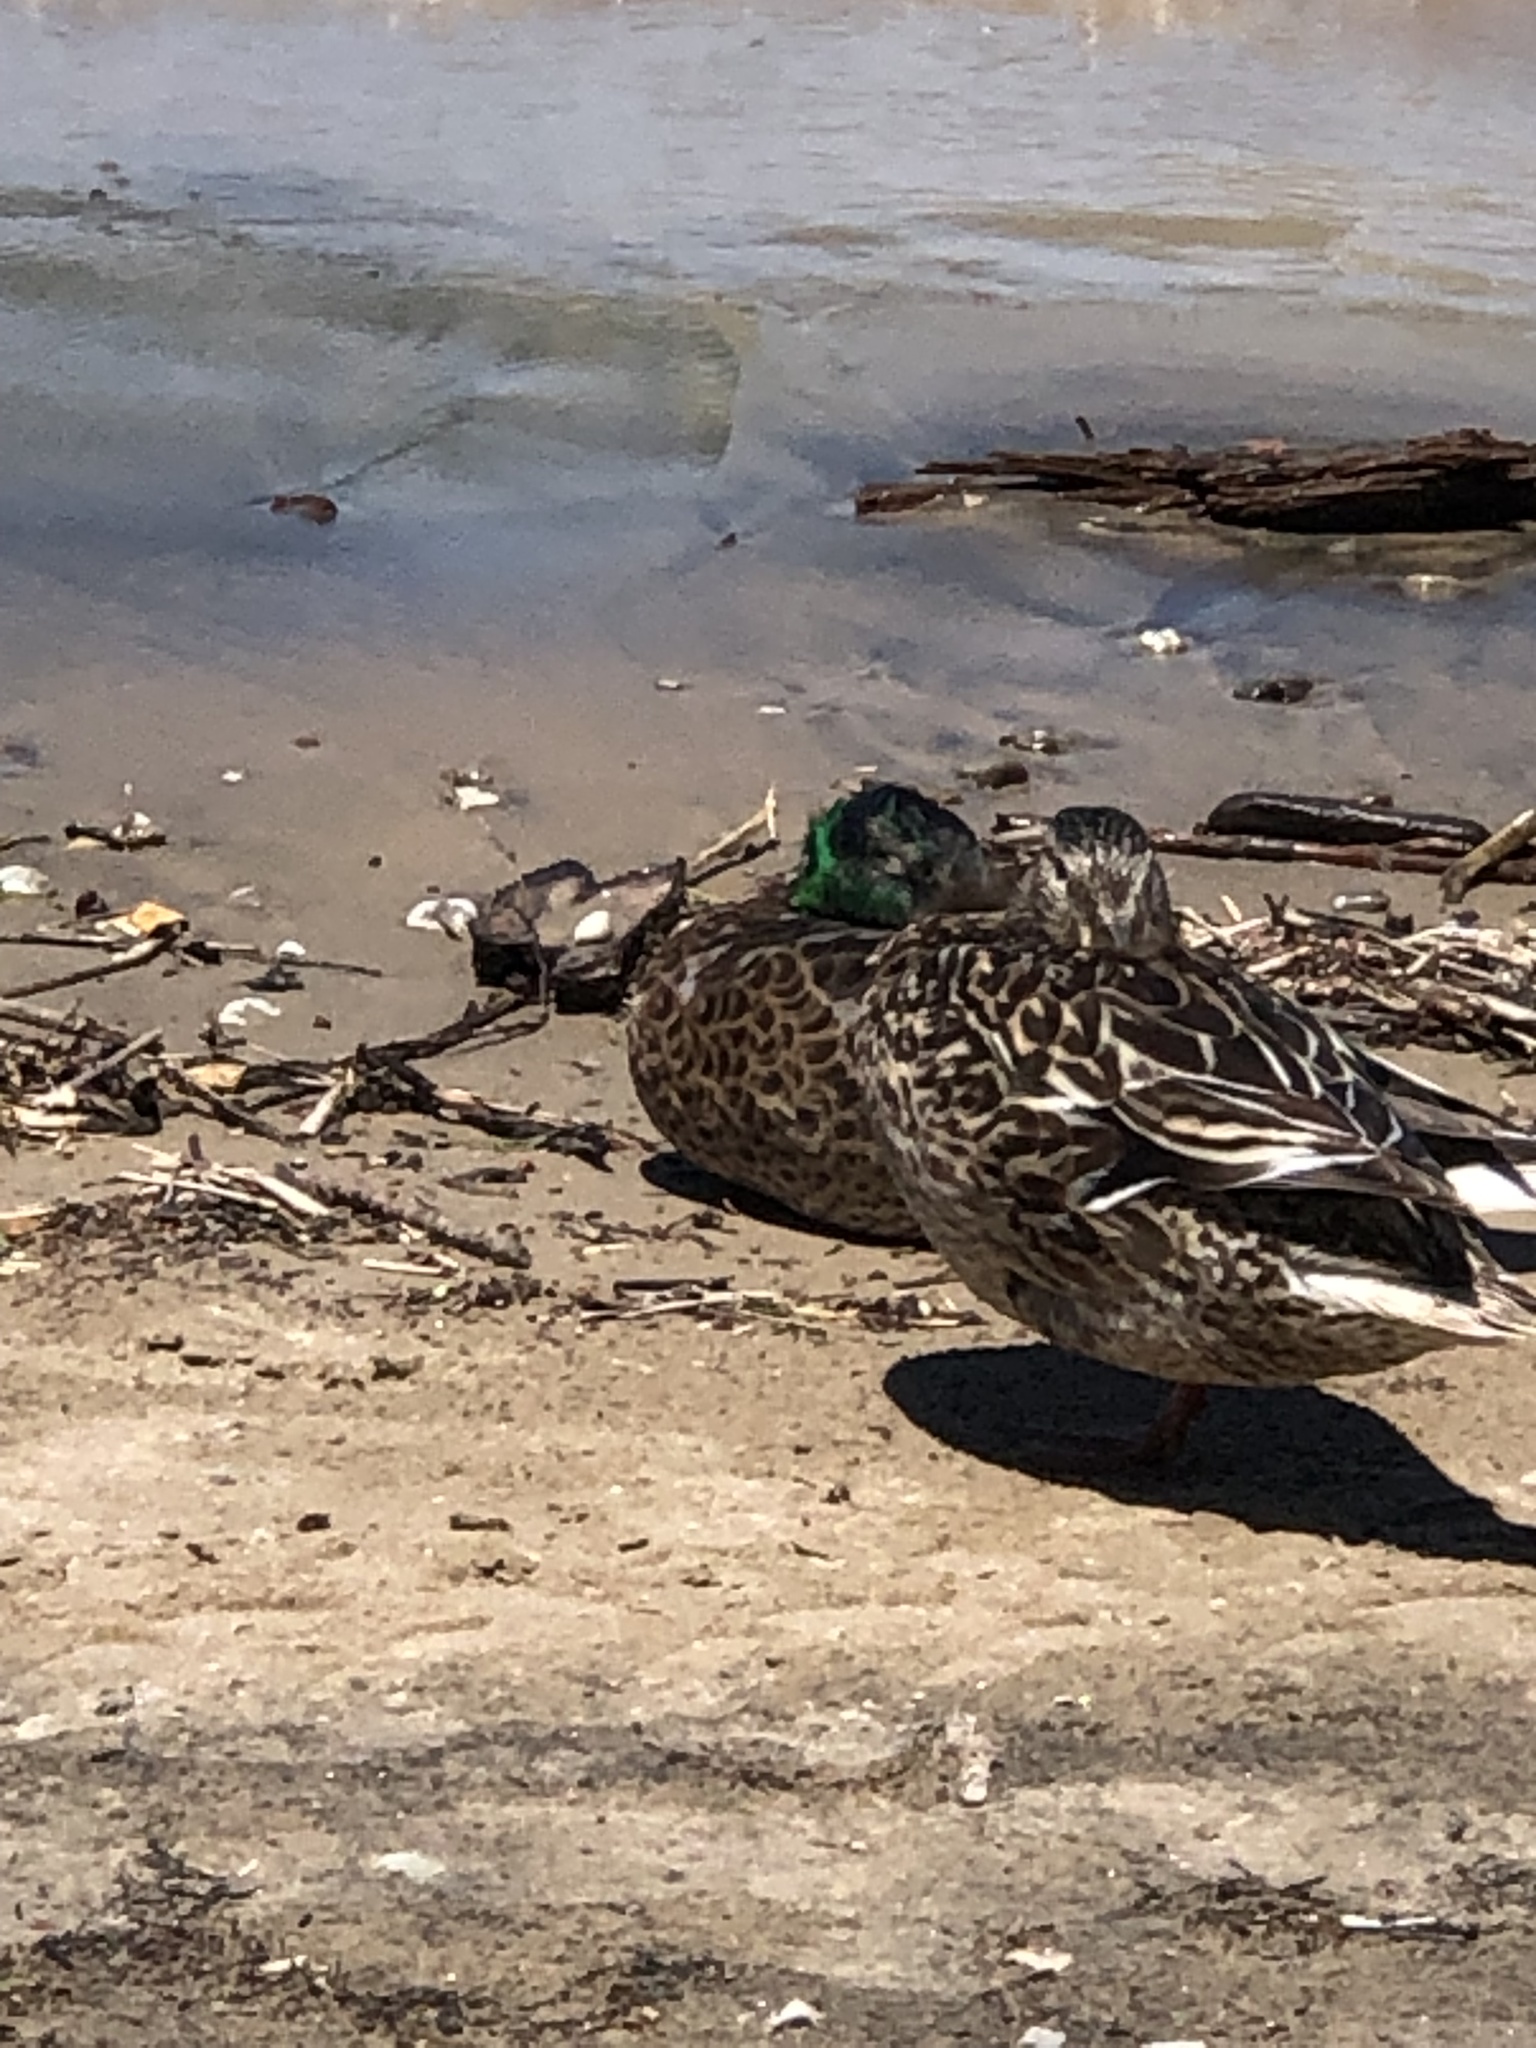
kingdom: Animalia
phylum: Chordata
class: Aves
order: Anseriformes
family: Anatidae
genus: Anas
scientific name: Anas platyrhynchos
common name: Mallard
